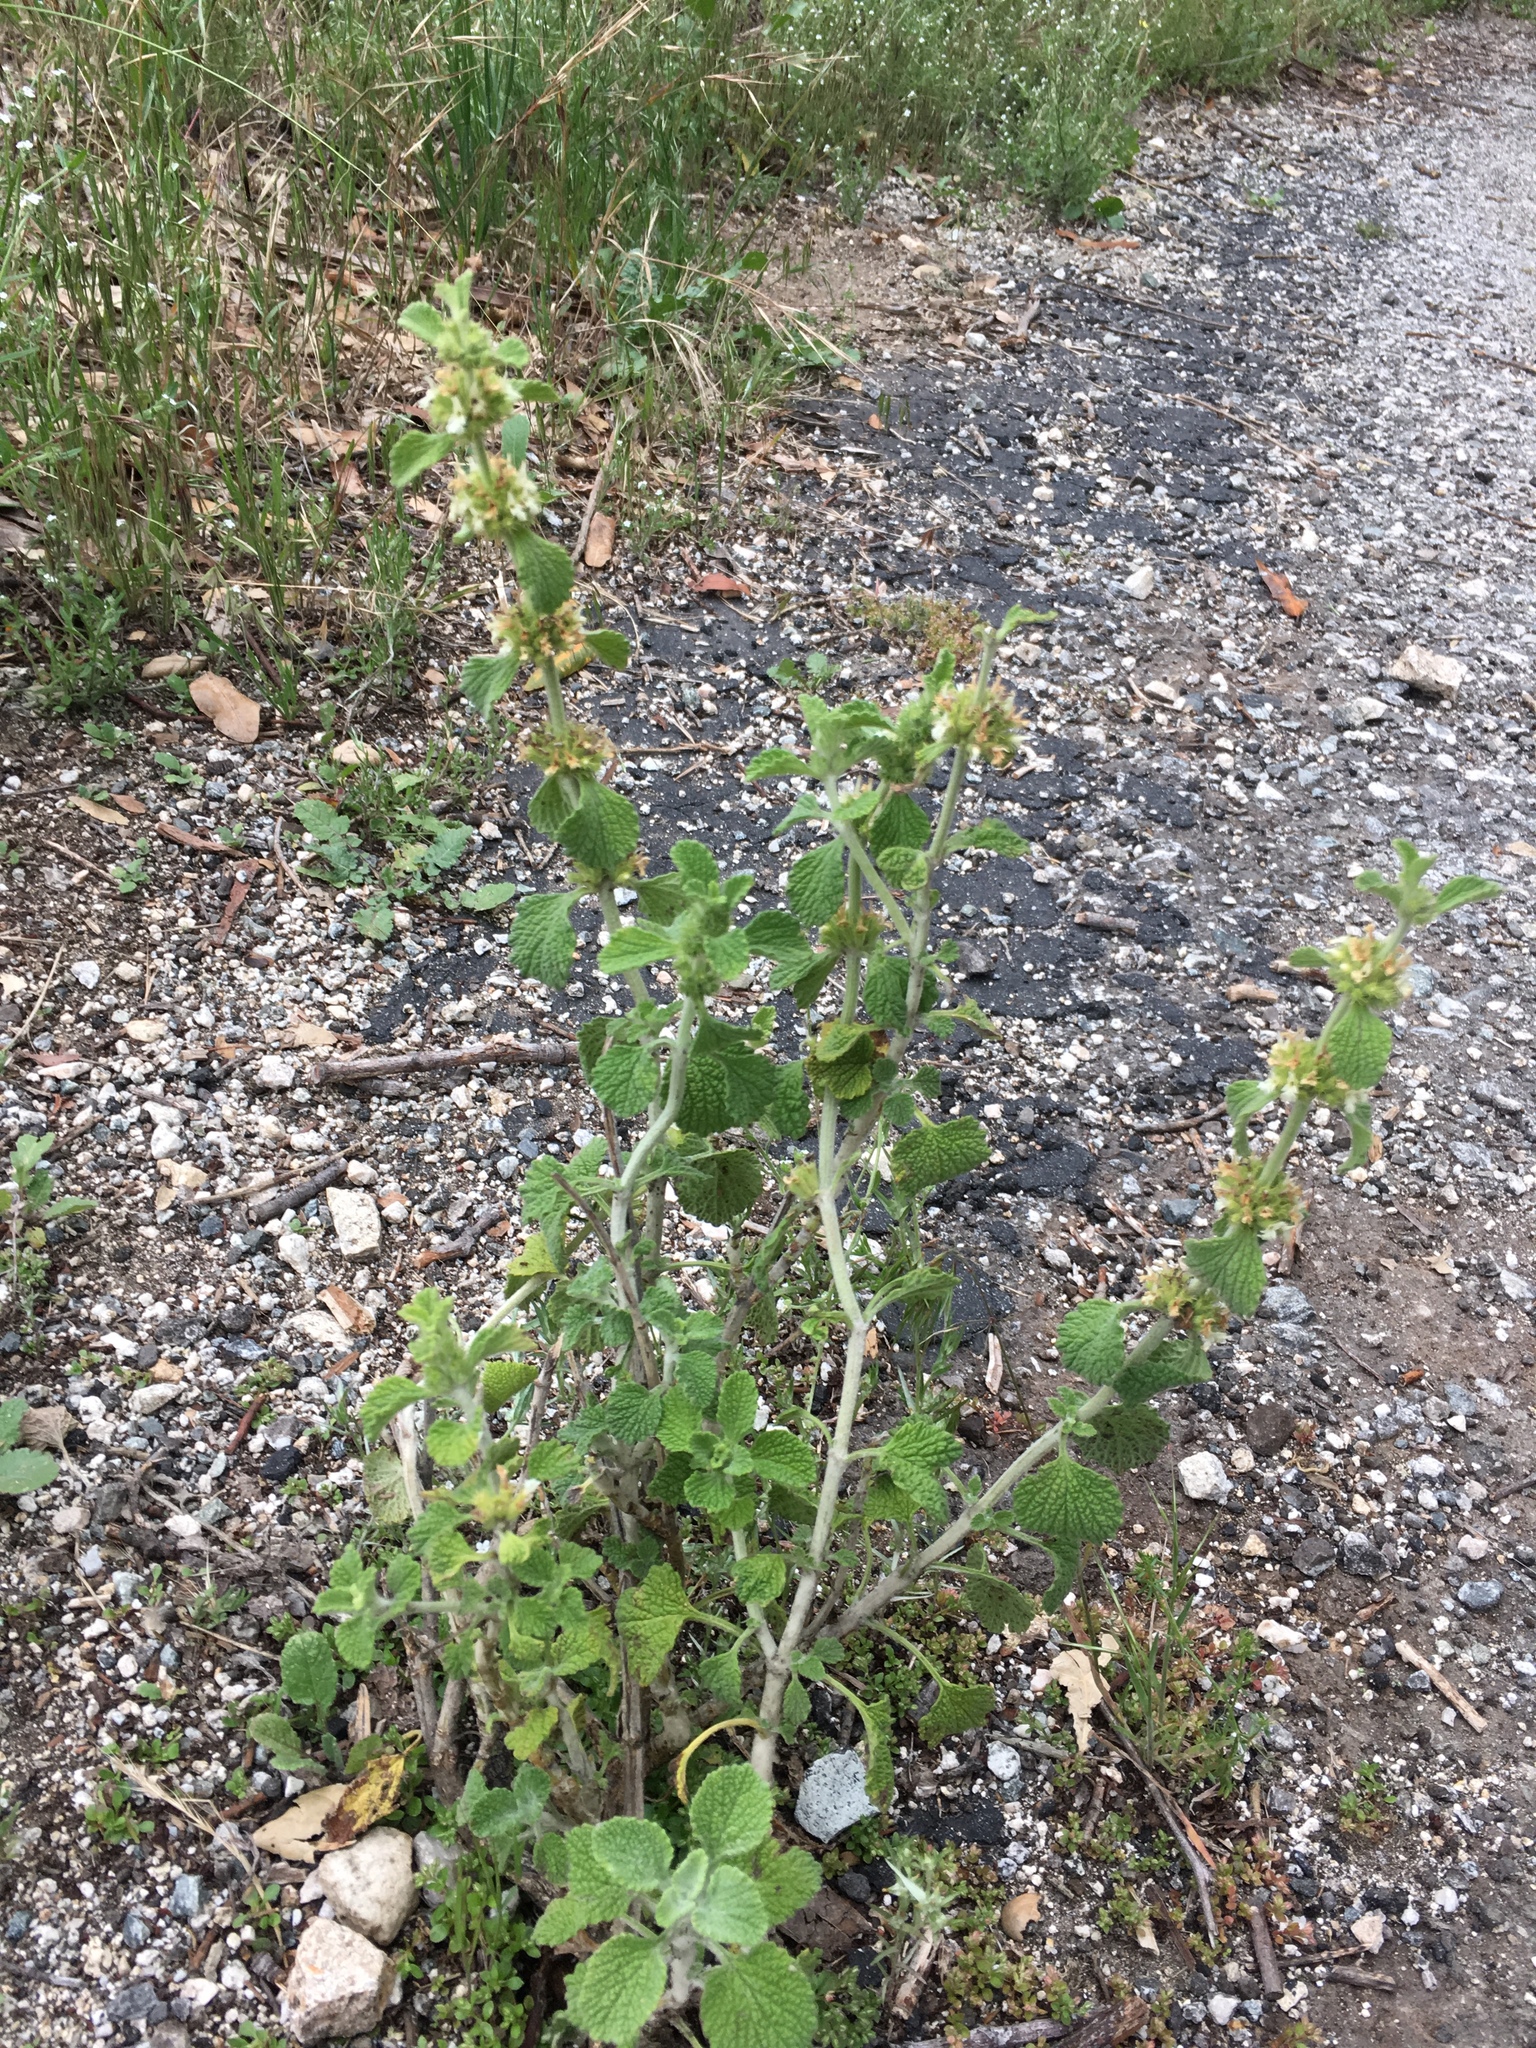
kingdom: Plantae
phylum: Tracheophyta
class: Magnoliopsida
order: Lamiales
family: Lamiaceae
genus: Marrubium
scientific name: Marrubium vulgare
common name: Horehound
